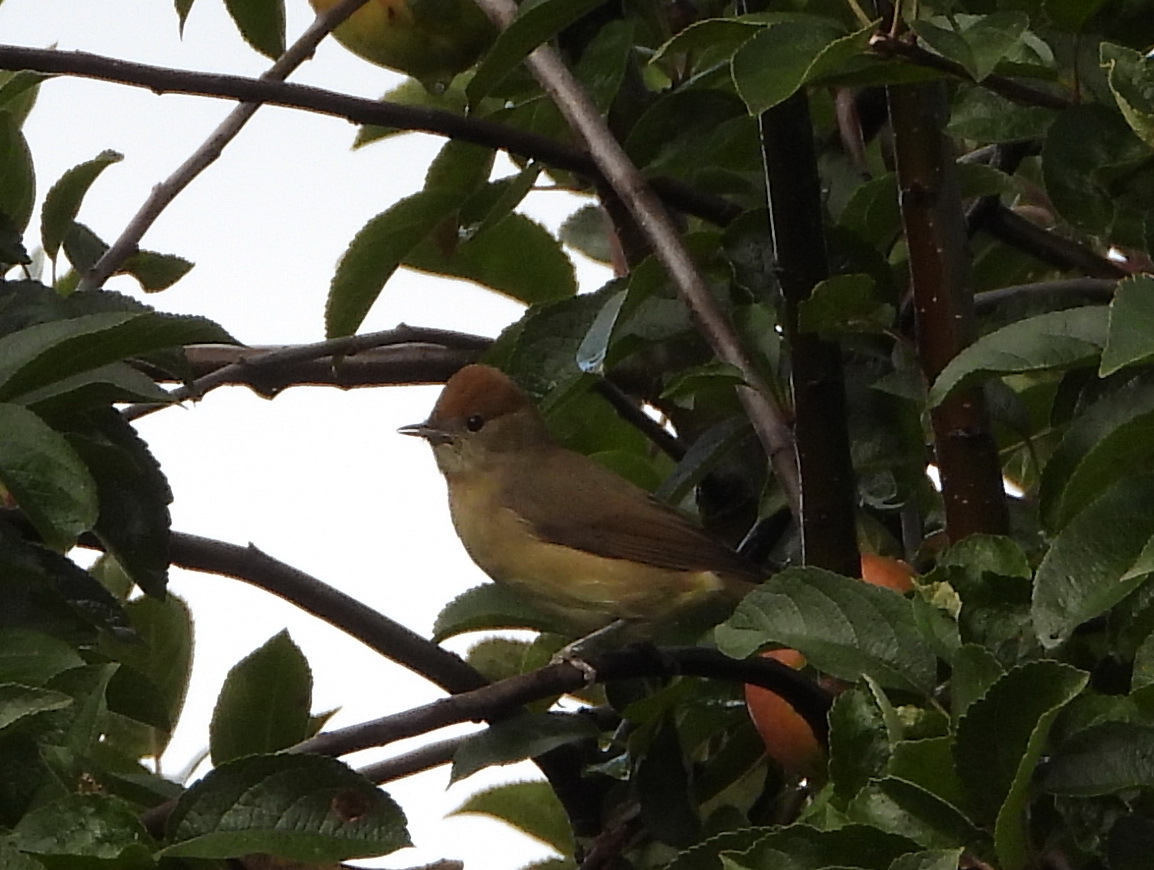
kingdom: Animalia
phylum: Chordata
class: Aves
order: Passeriformes
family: Sylviidae
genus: Sylvia
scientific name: Sylvia atricapilla
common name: Eurasian blackcap
